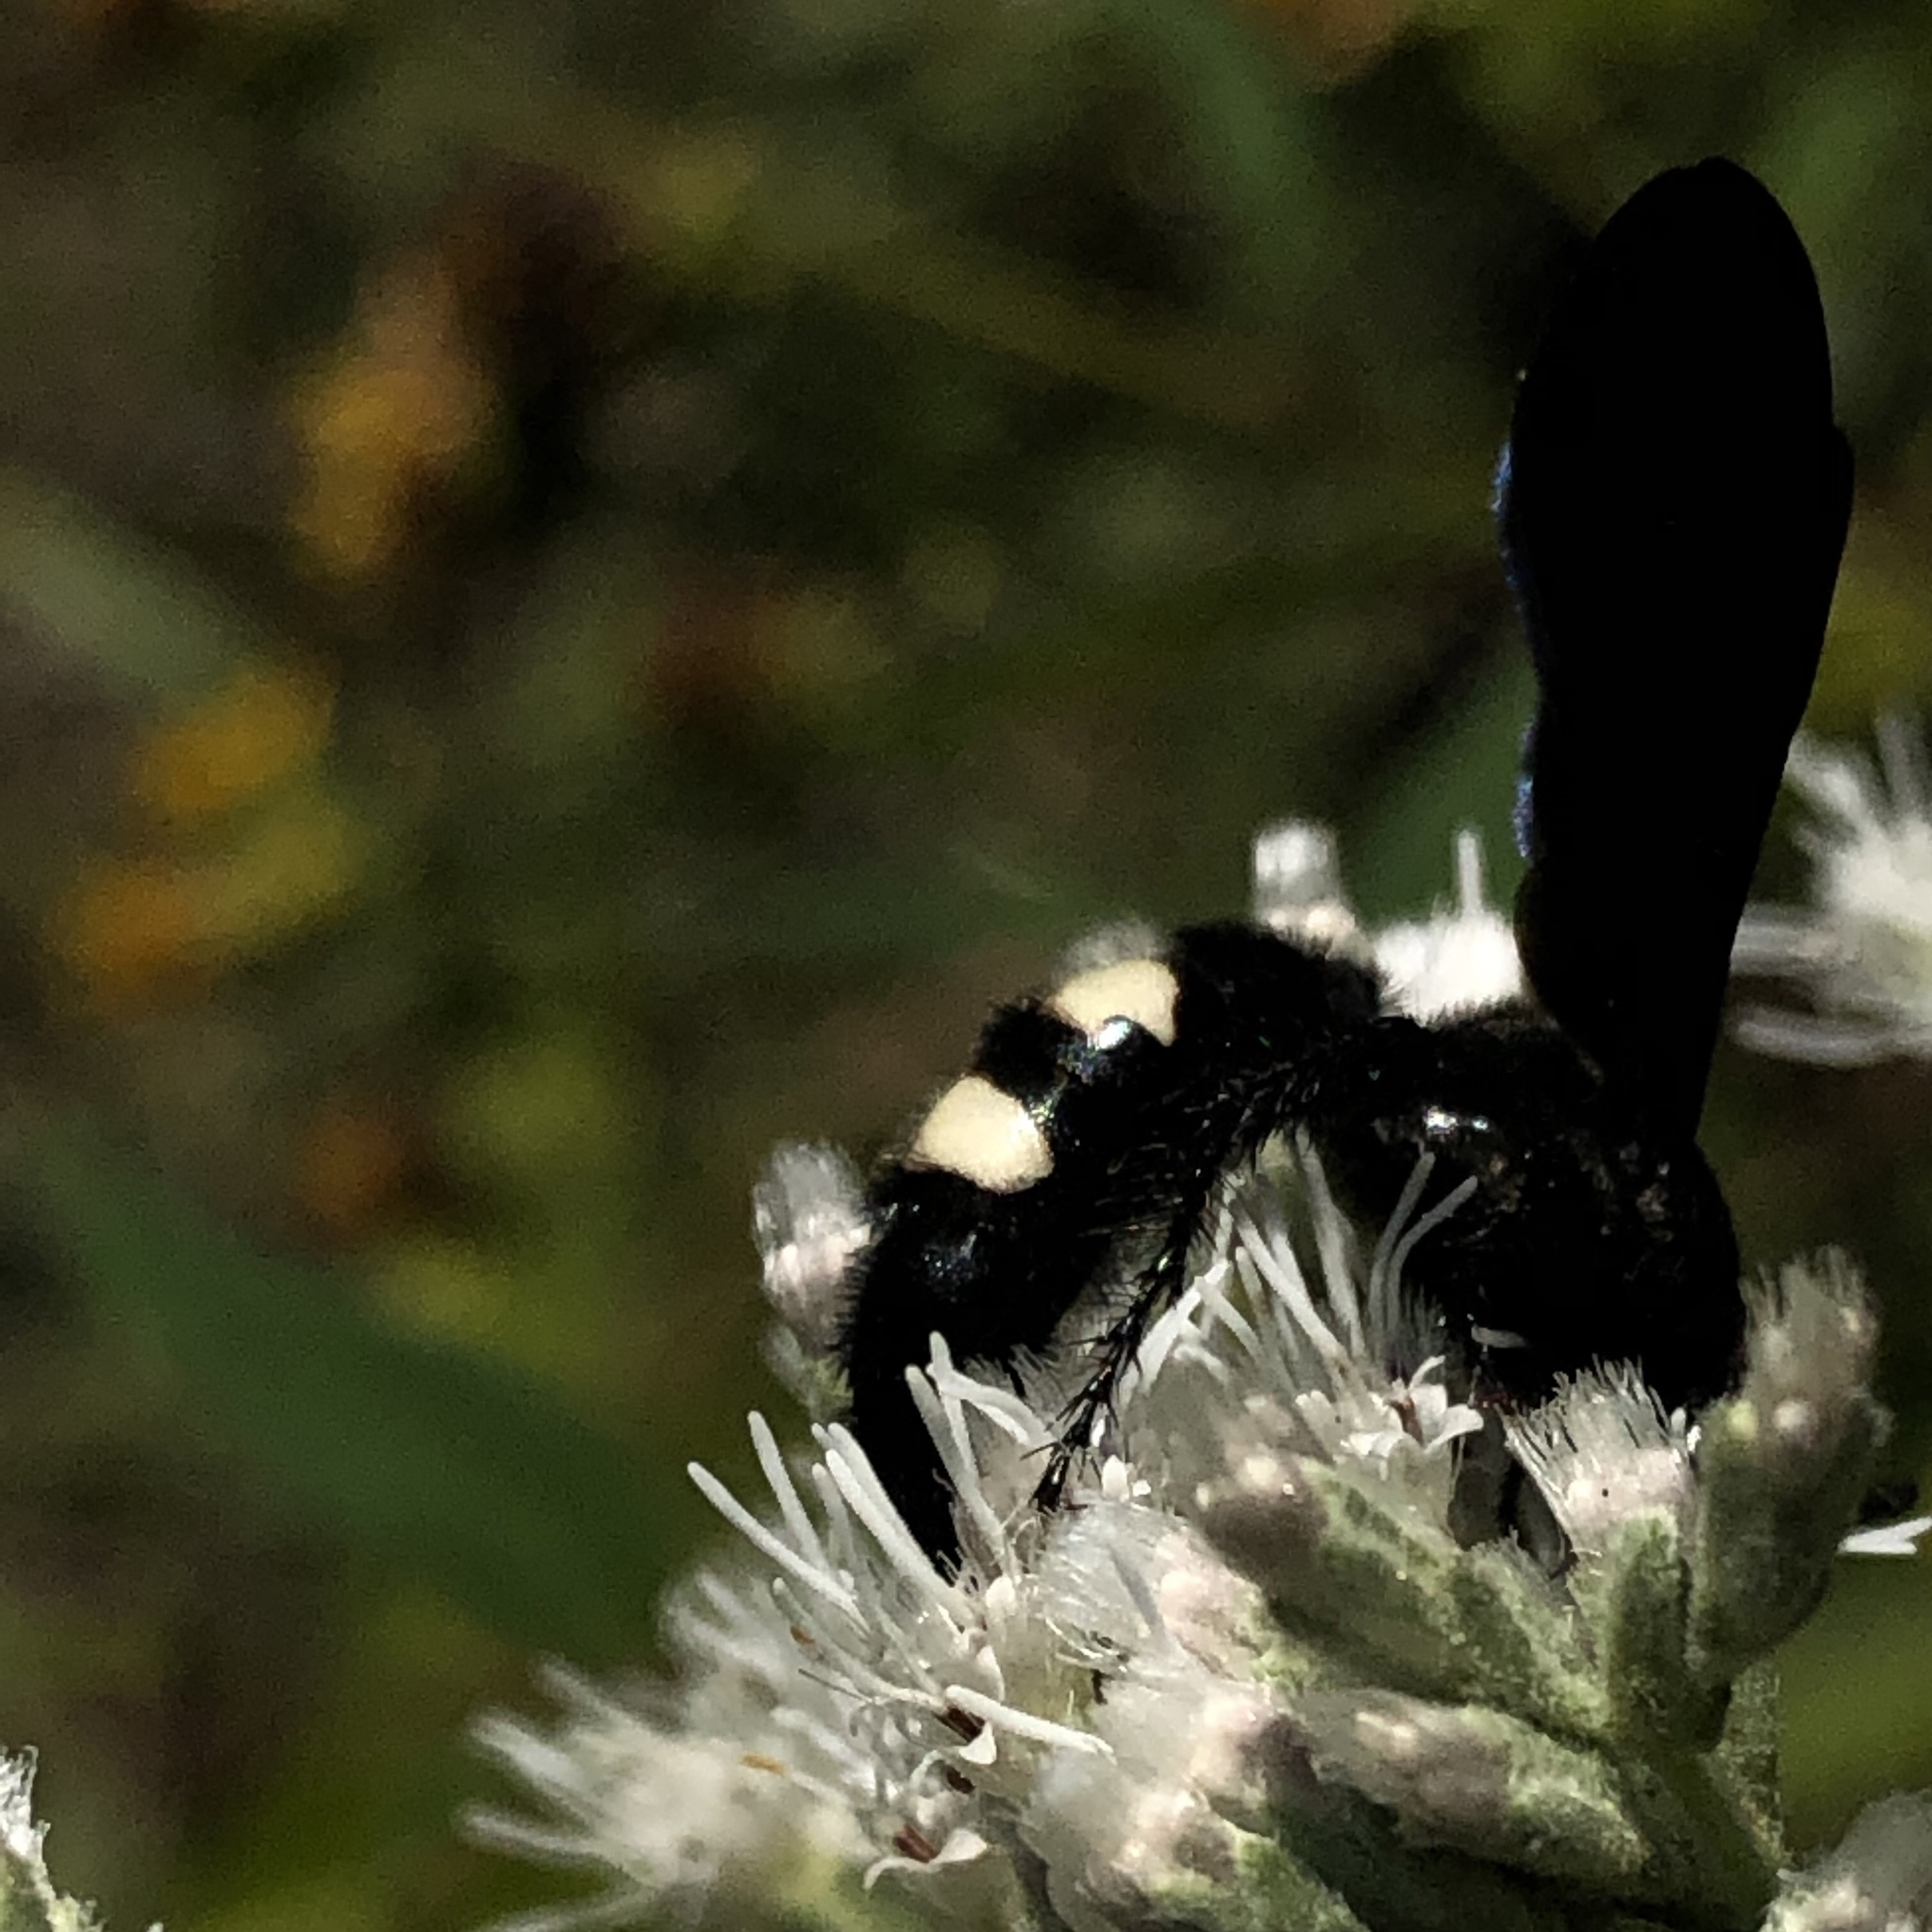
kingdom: Animalia
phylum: Arthropoda
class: Insecta
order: Hymenoptera
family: Scoliidae
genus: Scolia
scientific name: Scolia bicincta
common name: Double-banded scoliid wasp
